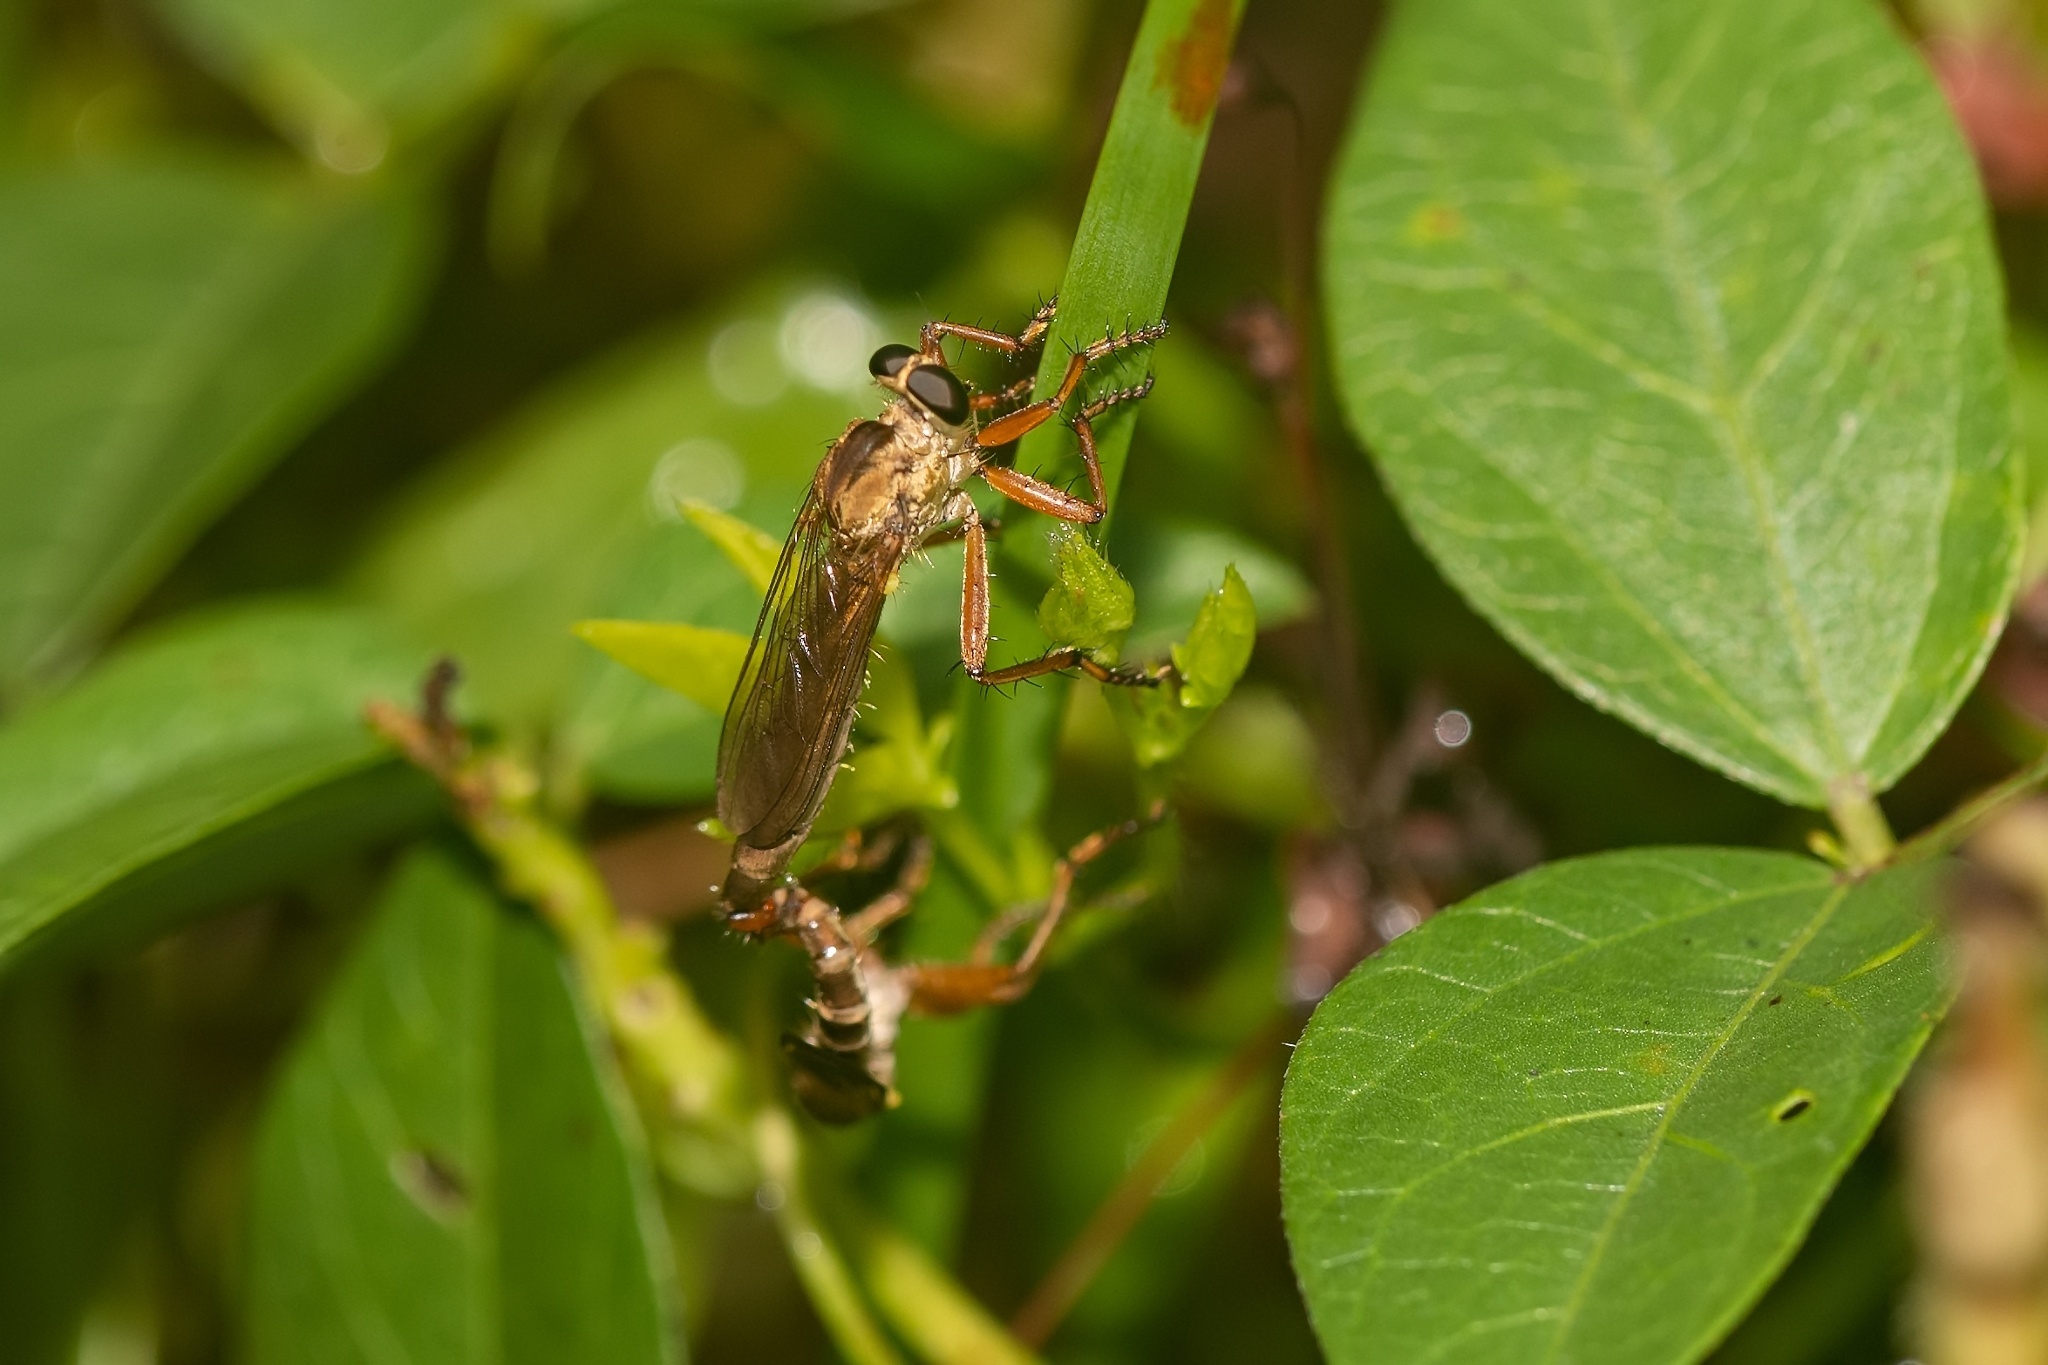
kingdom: Animalia
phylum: Arthropoda
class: Insecta
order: Diptera
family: Asilidae
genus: Polacantha
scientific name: Polacantha gracilis
